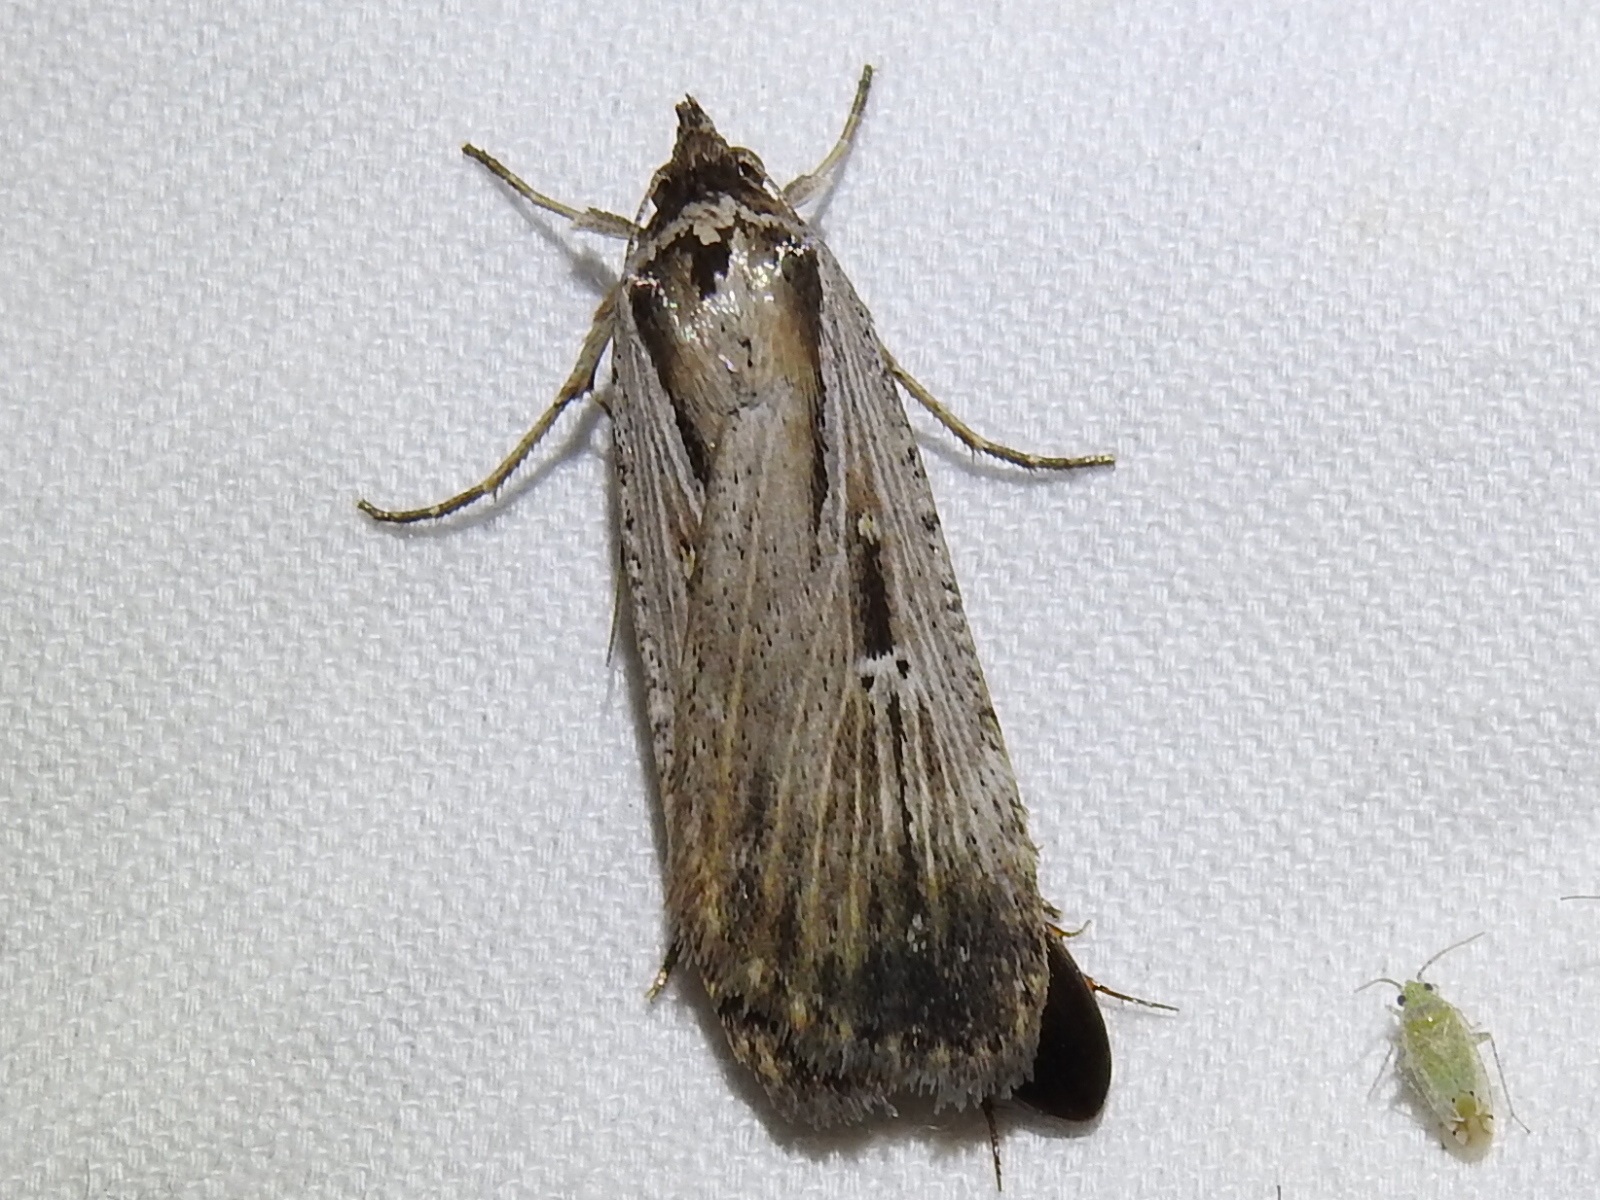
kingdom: Animalia
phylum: Arthropoda
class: Insecta
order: Lepidoptera
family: Noctuidae
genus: Tathorhynchus
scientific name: Tathorhynchus exsiccata
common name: Levant blackneck moth
